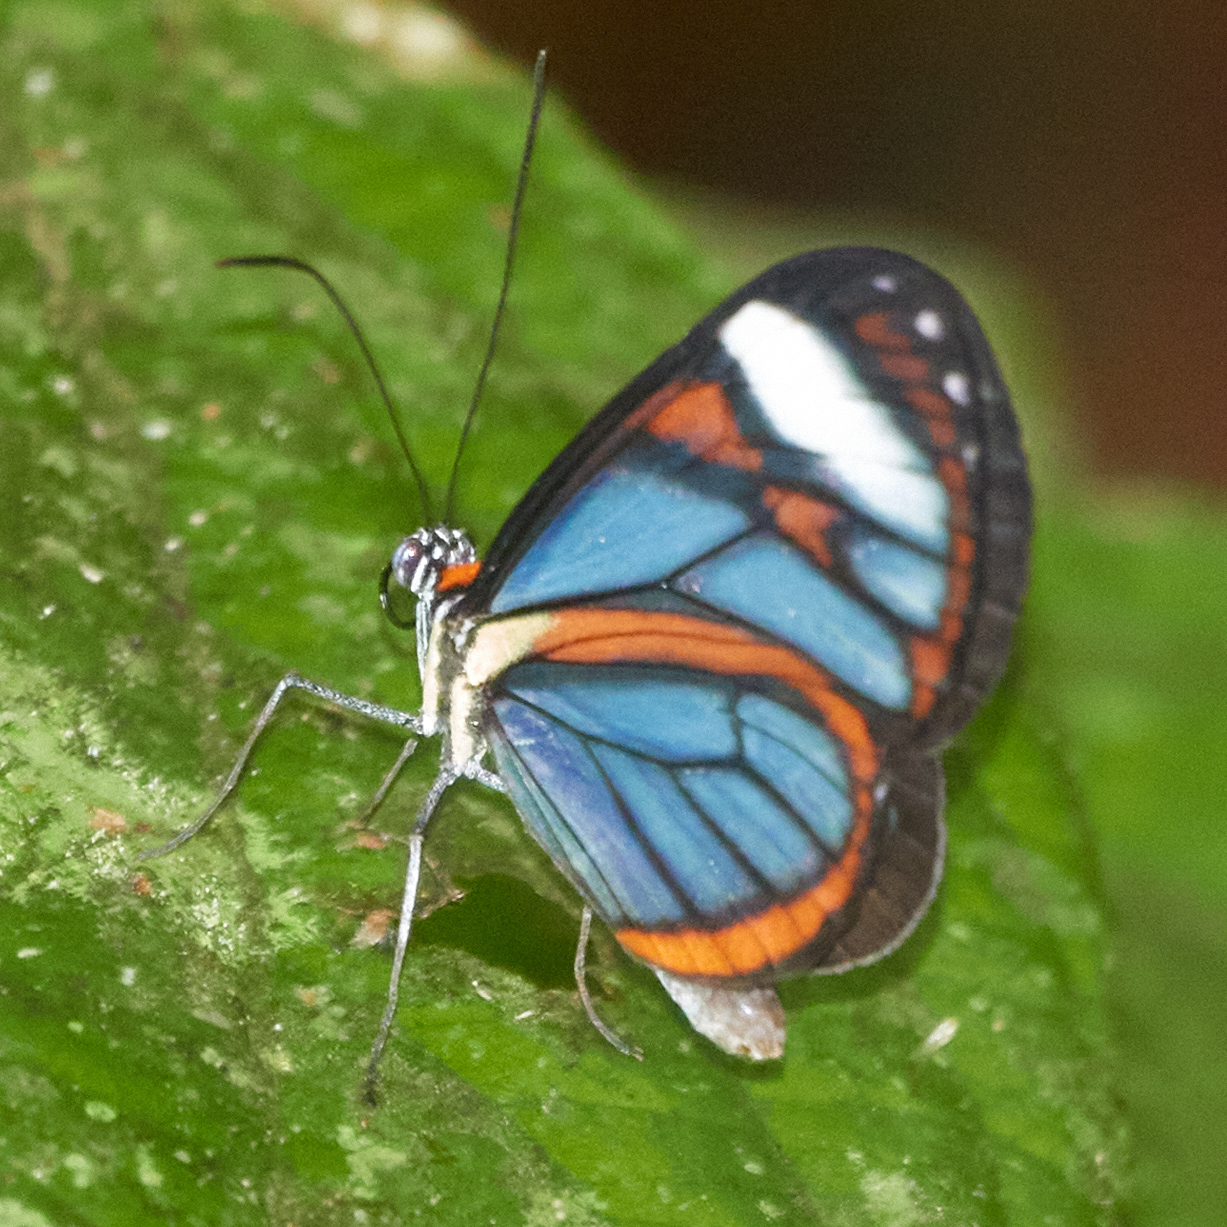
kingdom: Animalia
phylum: Arthropoda
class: Insecta
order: Lepidoptera
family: Nymphalidae
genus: Ithomia
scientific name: Ithomia
